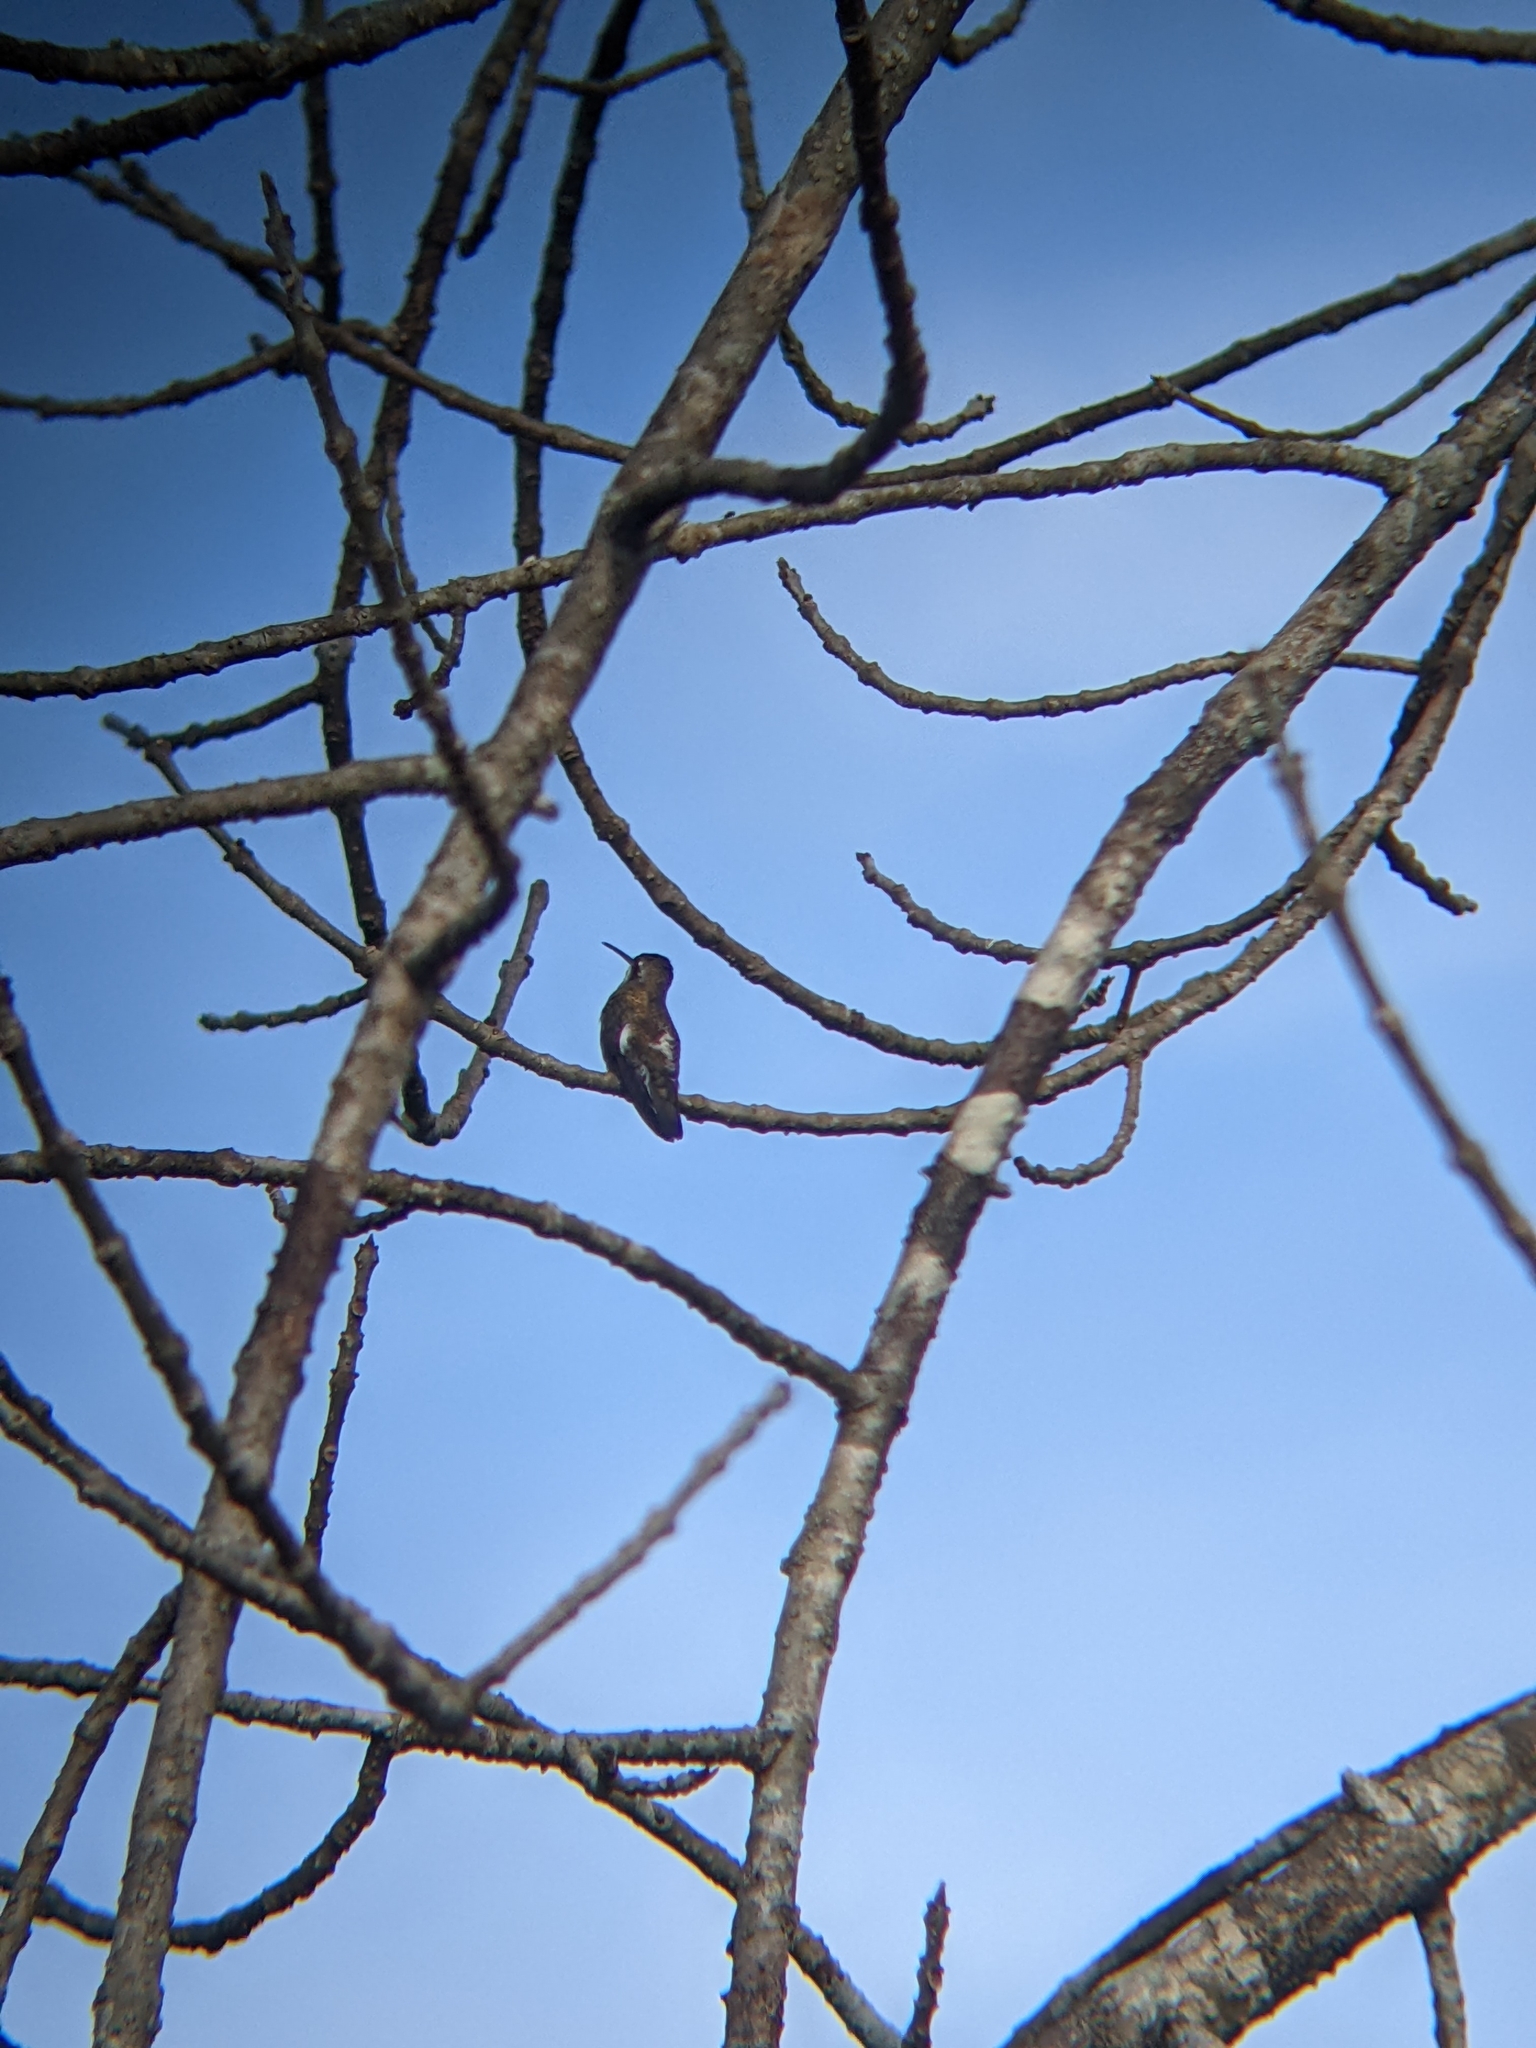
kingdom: Animalia
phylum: Chordata
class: Aves
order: Apodiformes
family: Trochilidae
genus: Heliomaster
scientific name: Heliomaster constantii
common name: Plain-capped starthroat
